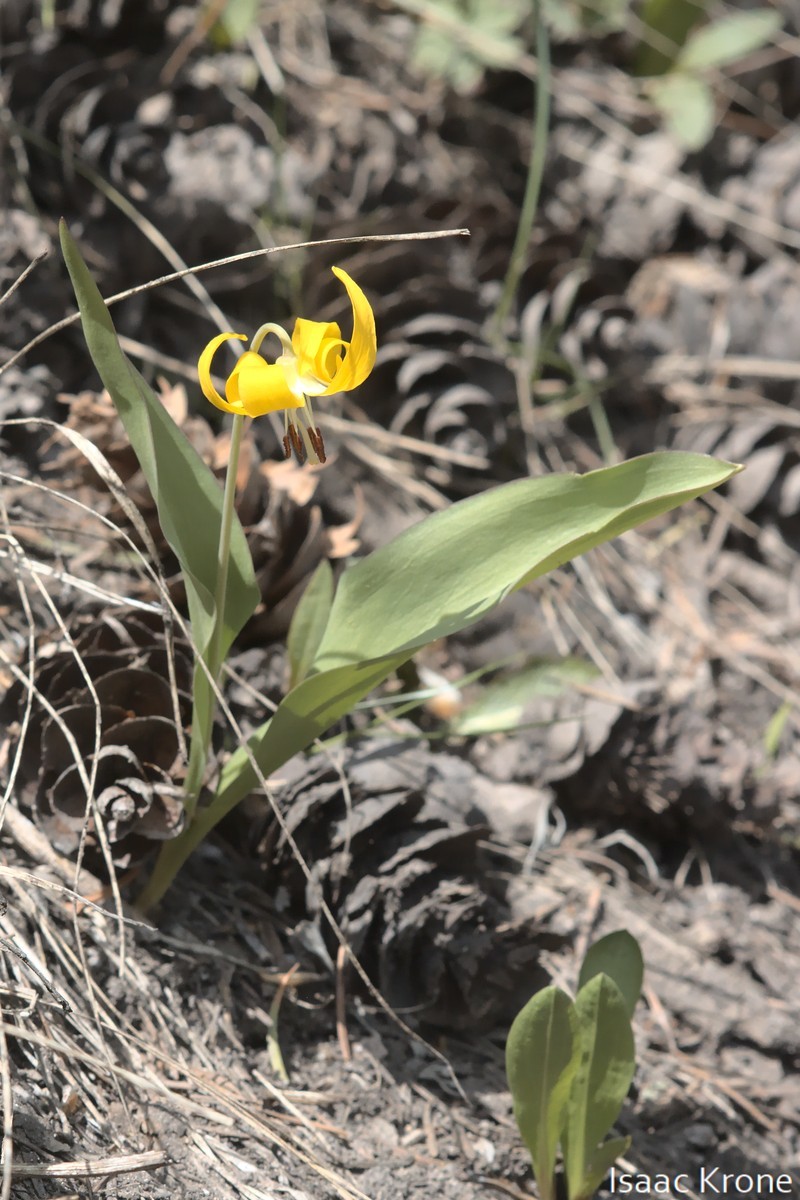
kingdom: Plantae
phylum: Tracheophyta
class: Liliopsida
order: Liliales
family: Liliaceae
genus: Erythronium
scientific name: Erythronium grandiflorum
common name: Avalanche-lily
